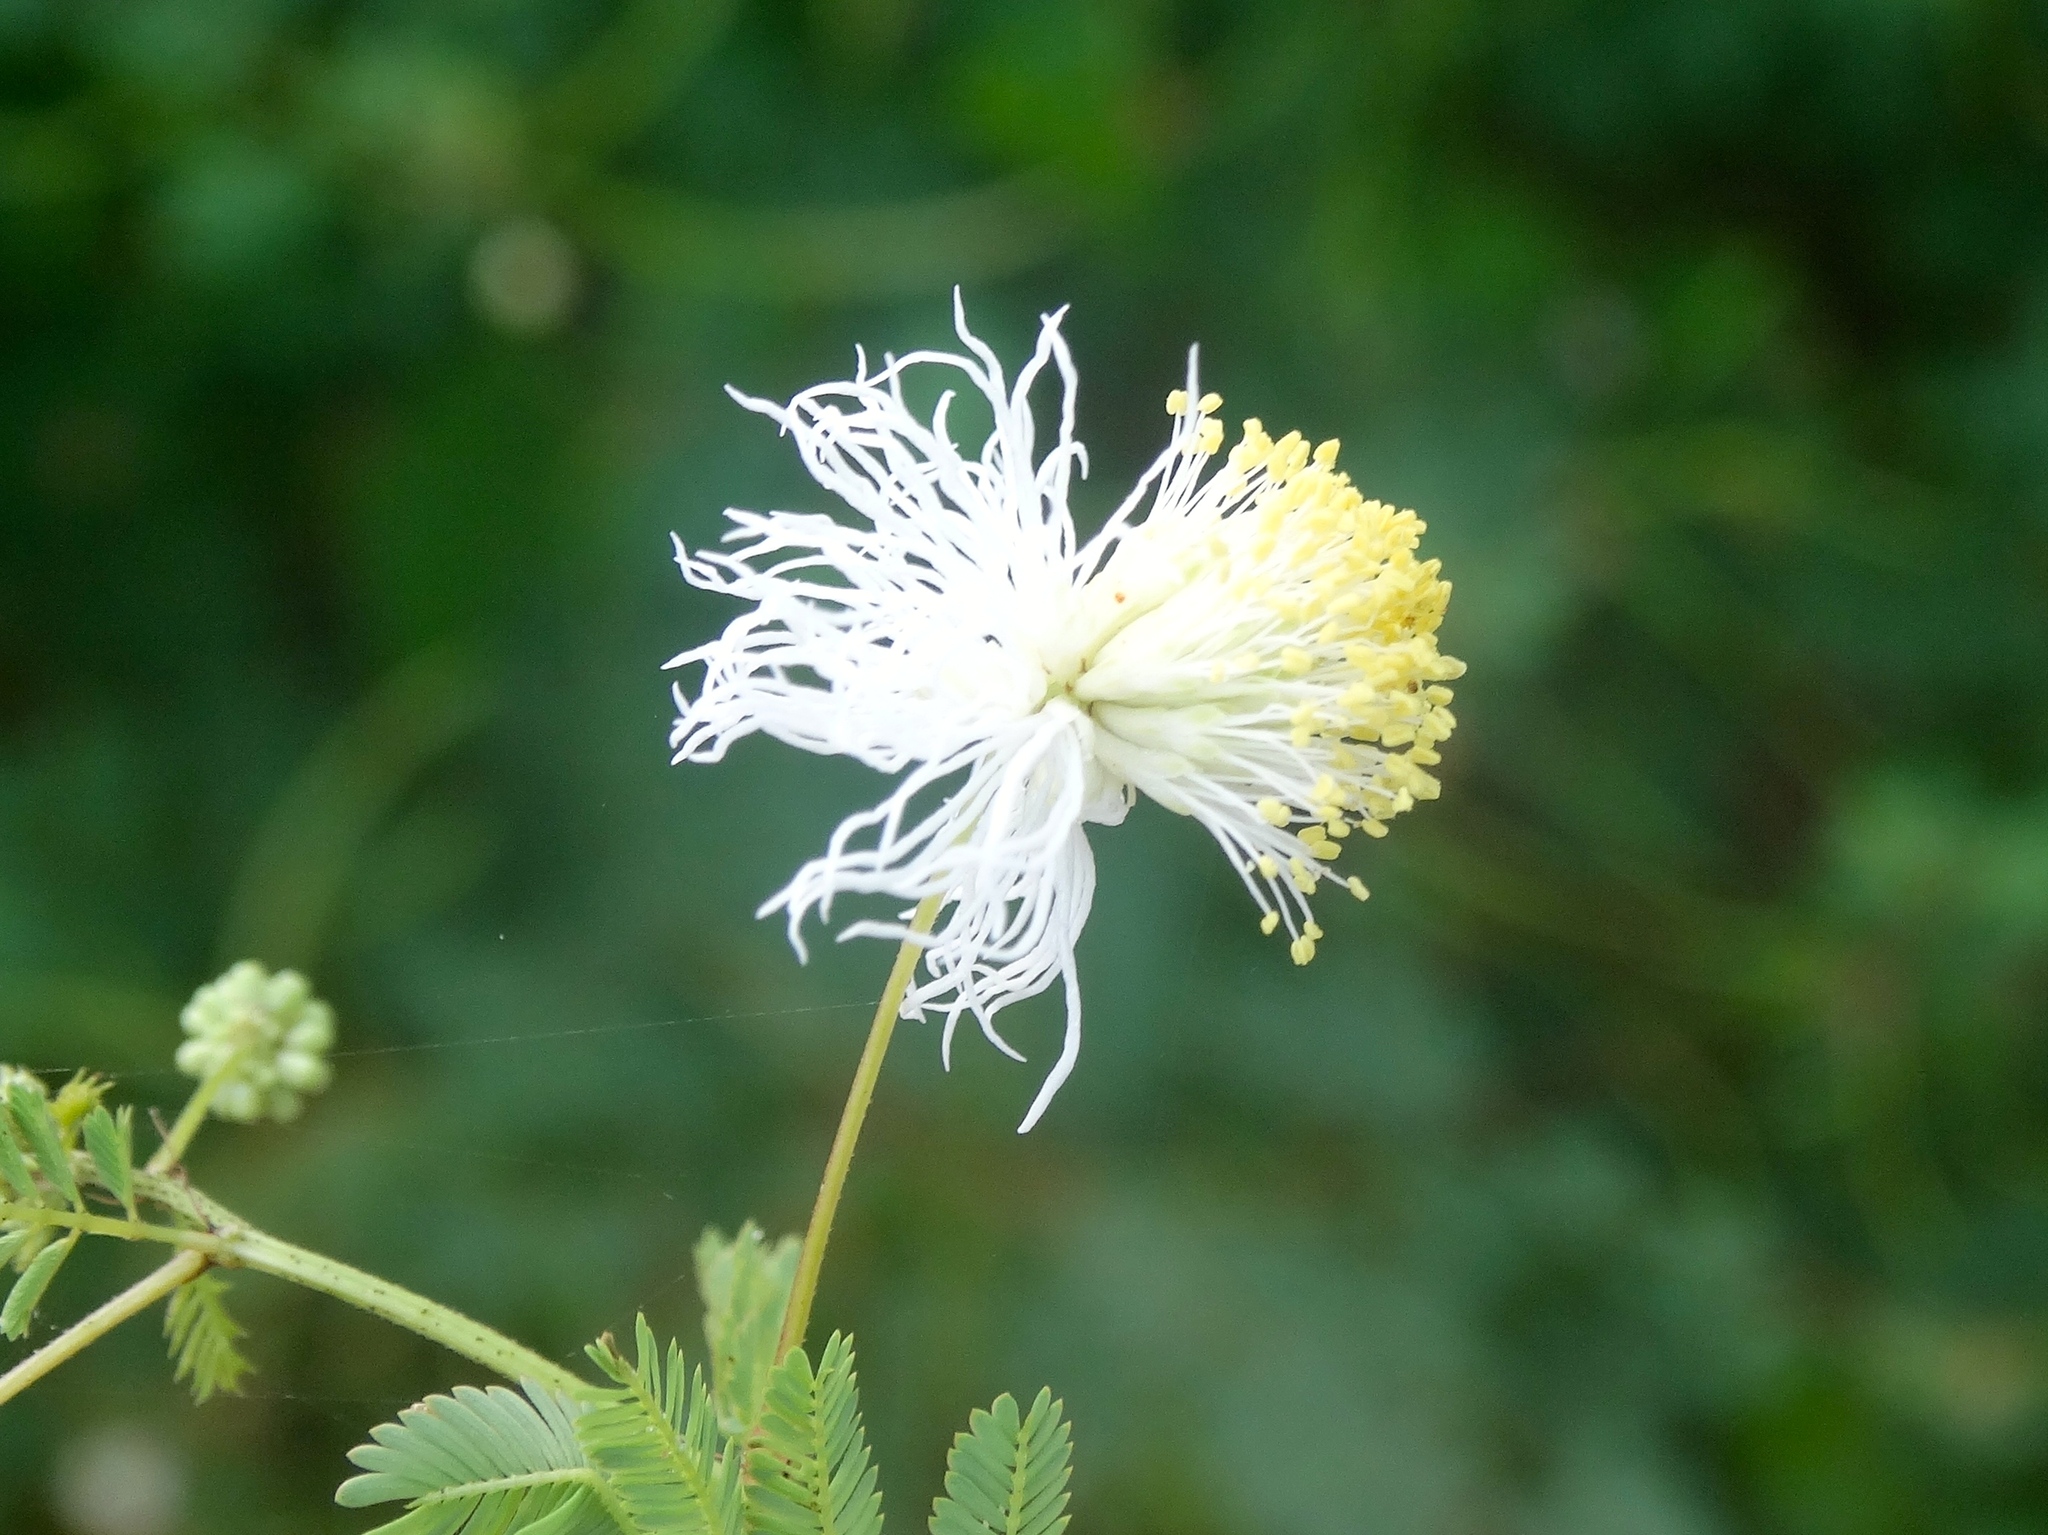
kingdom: Plantae
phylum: Tracheophyta
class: Magnoliopsida
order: Fabales
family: Fabaceae
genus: Desmanthus
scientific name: Desmanthus
